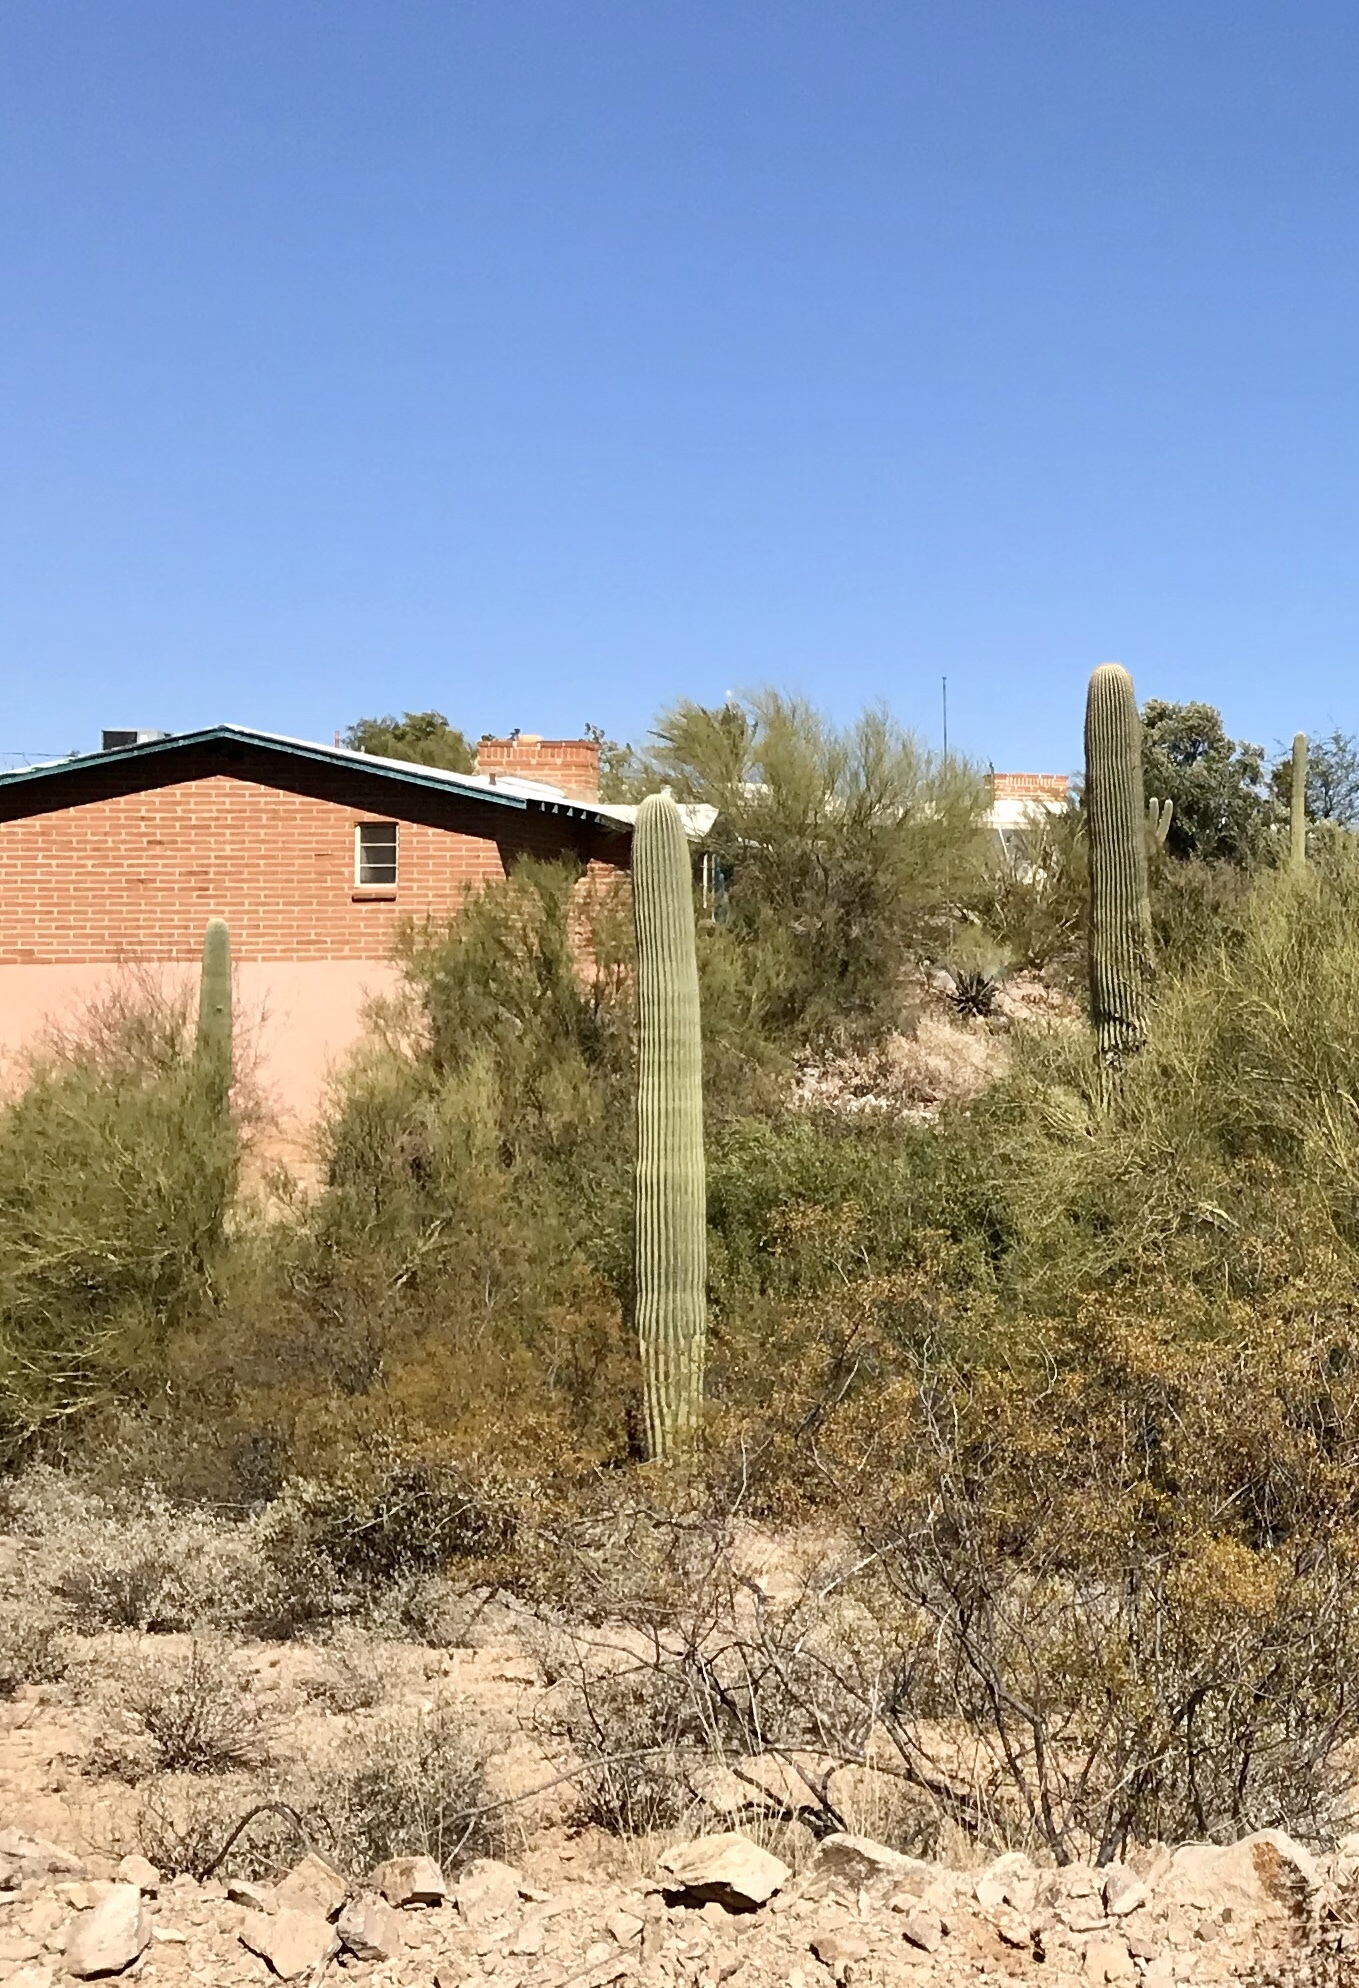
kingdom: Plantae
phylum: Tracheophyta
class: Magnoliopsida
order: Caryophyllales
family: Cactaceae
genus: Carnegiea
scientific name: Carnegiea gigantea
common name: Saguaro
